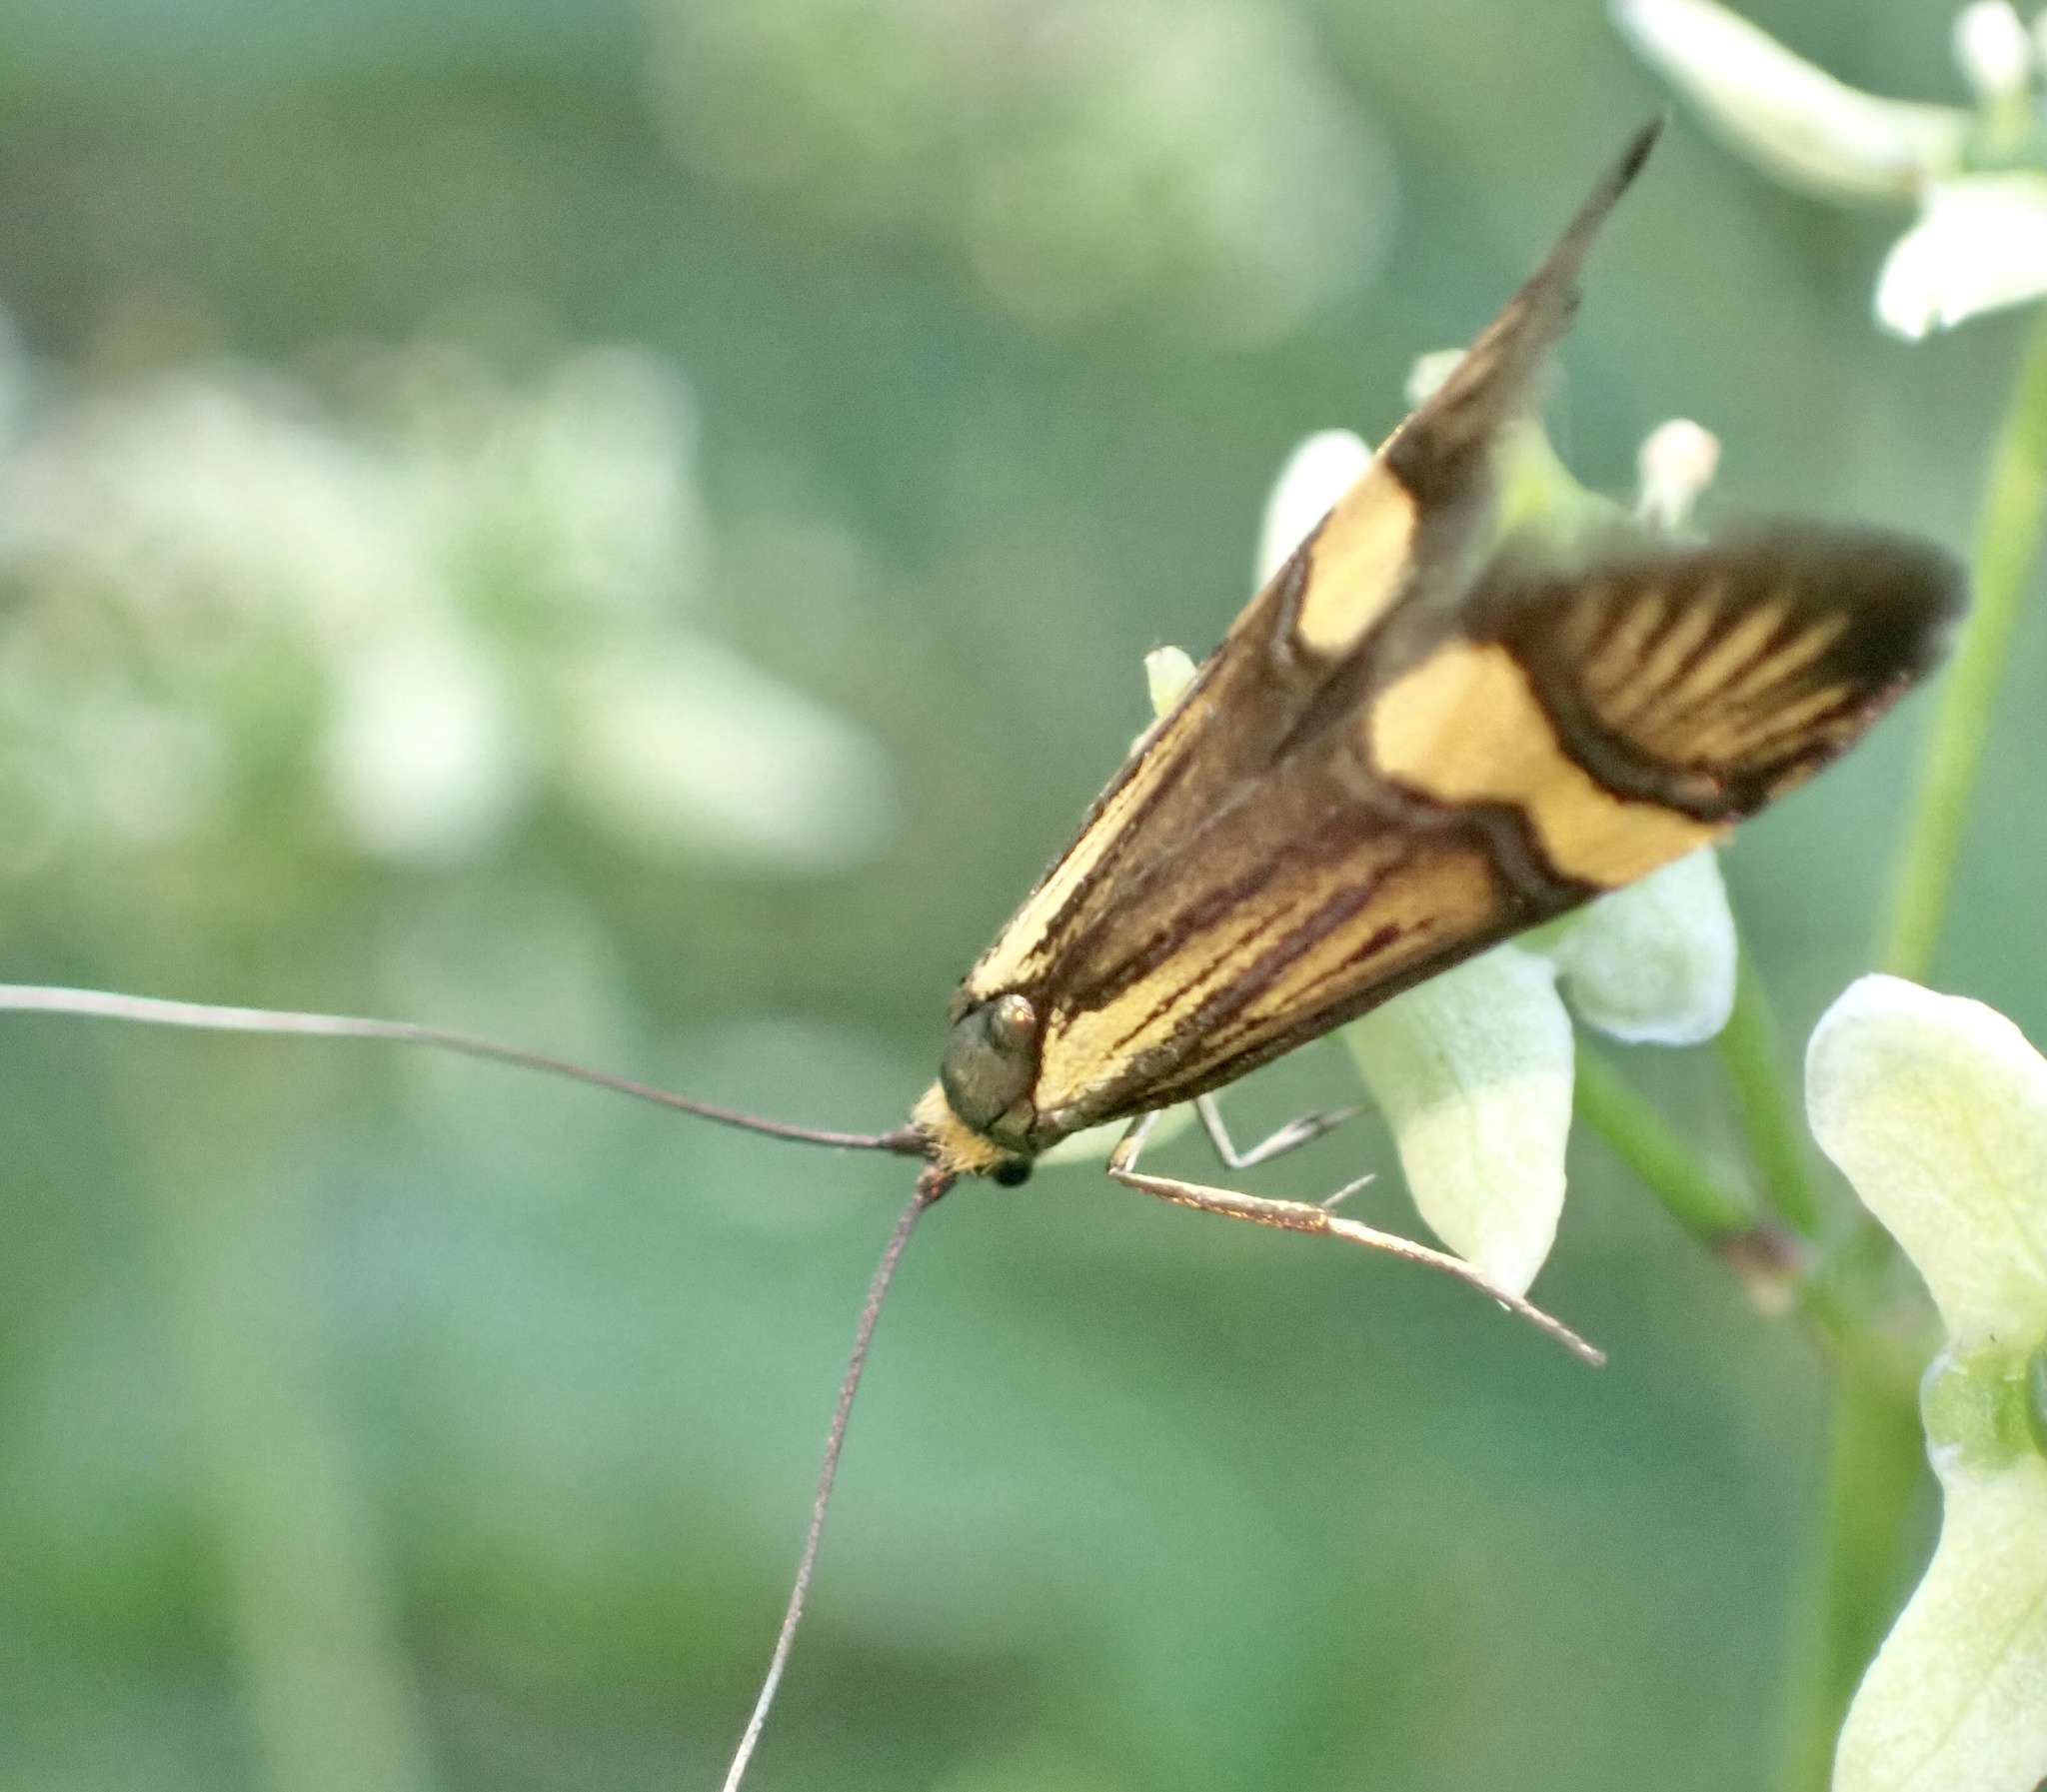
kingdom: Animalia
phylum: Arthropoda
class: Insecta
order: Lepidoptera
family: Adelidae
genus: Nemophora
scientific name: Nemophora degeerella
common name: Yellow-barred long-horn
